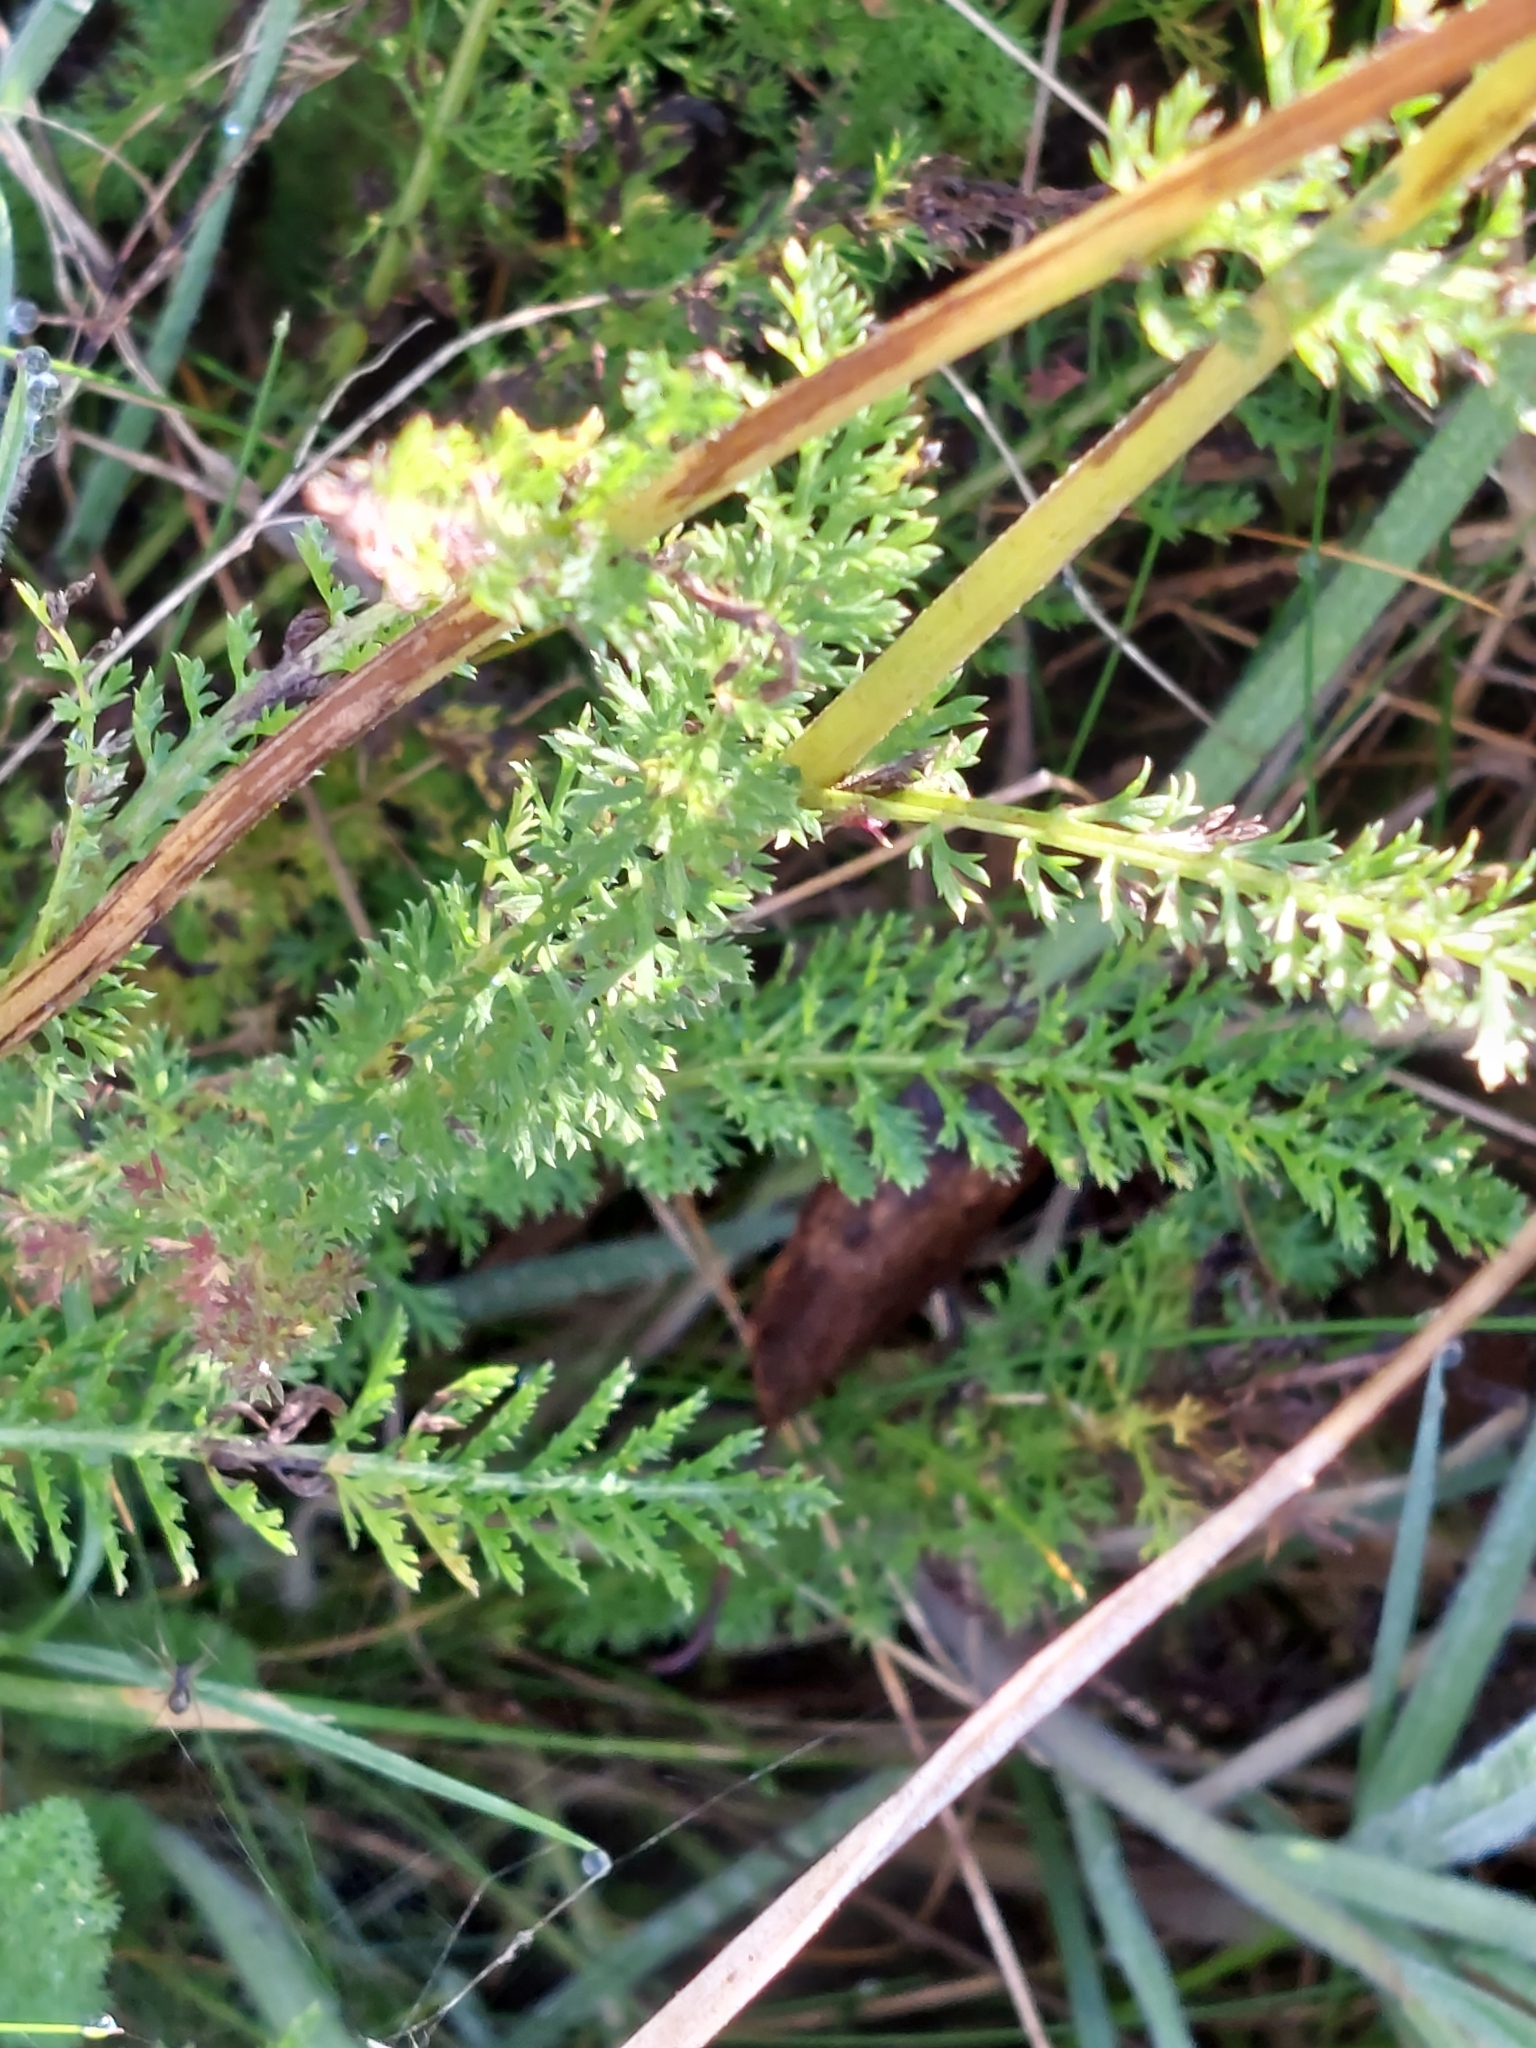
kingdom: Plantae
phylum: Tracheophyta
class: Magnoliopsida
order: Asterales
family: Asteraceae
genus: Achillea
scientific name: Achillea millefolium
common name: Yarrow
